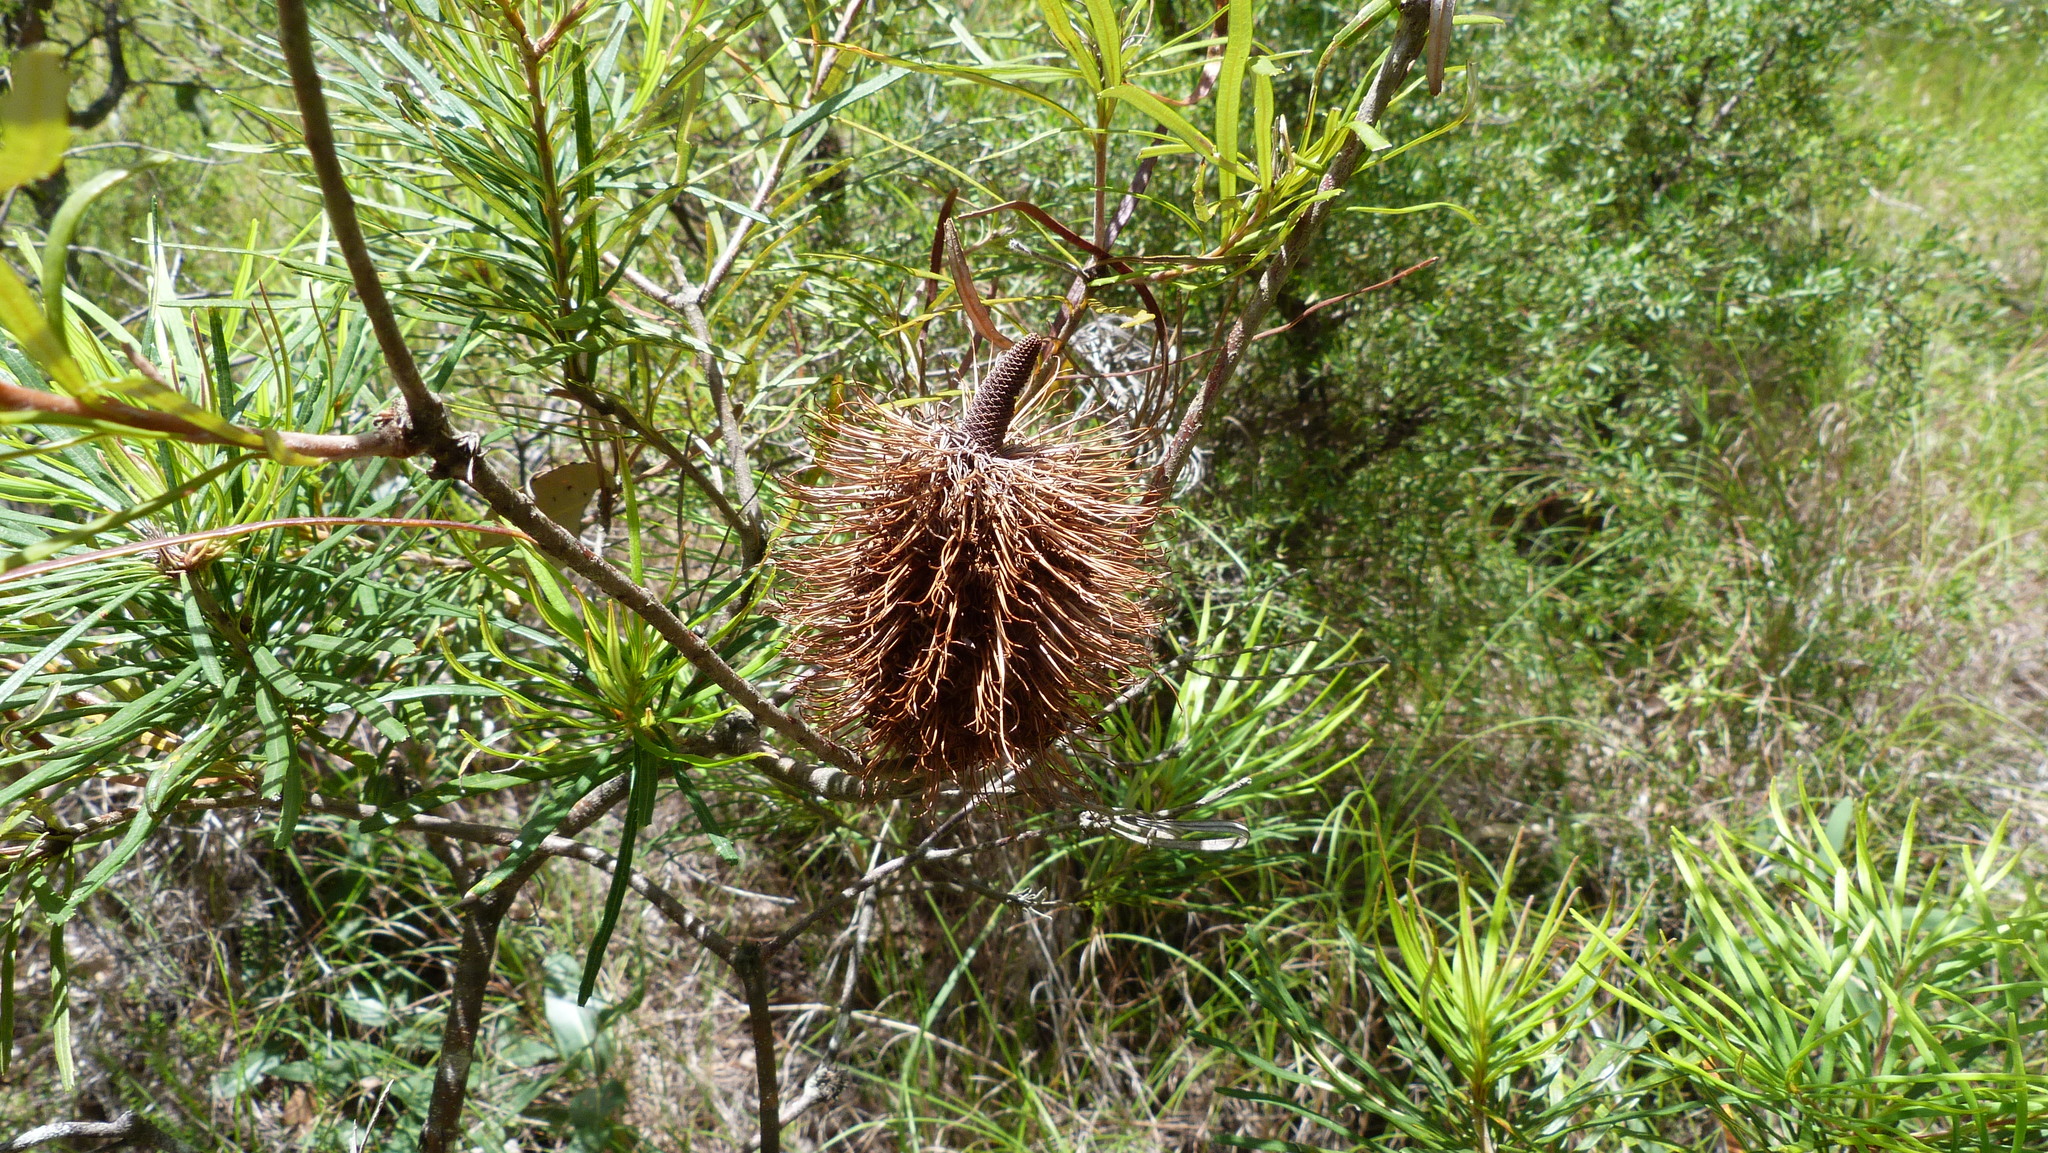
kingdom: Plantae
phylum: Tracheophyta
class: Magnoliopsida
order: Proteales
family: Proteaceae
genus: Banksia
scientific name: Banksia spinulosa
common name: Hairpin banksia
